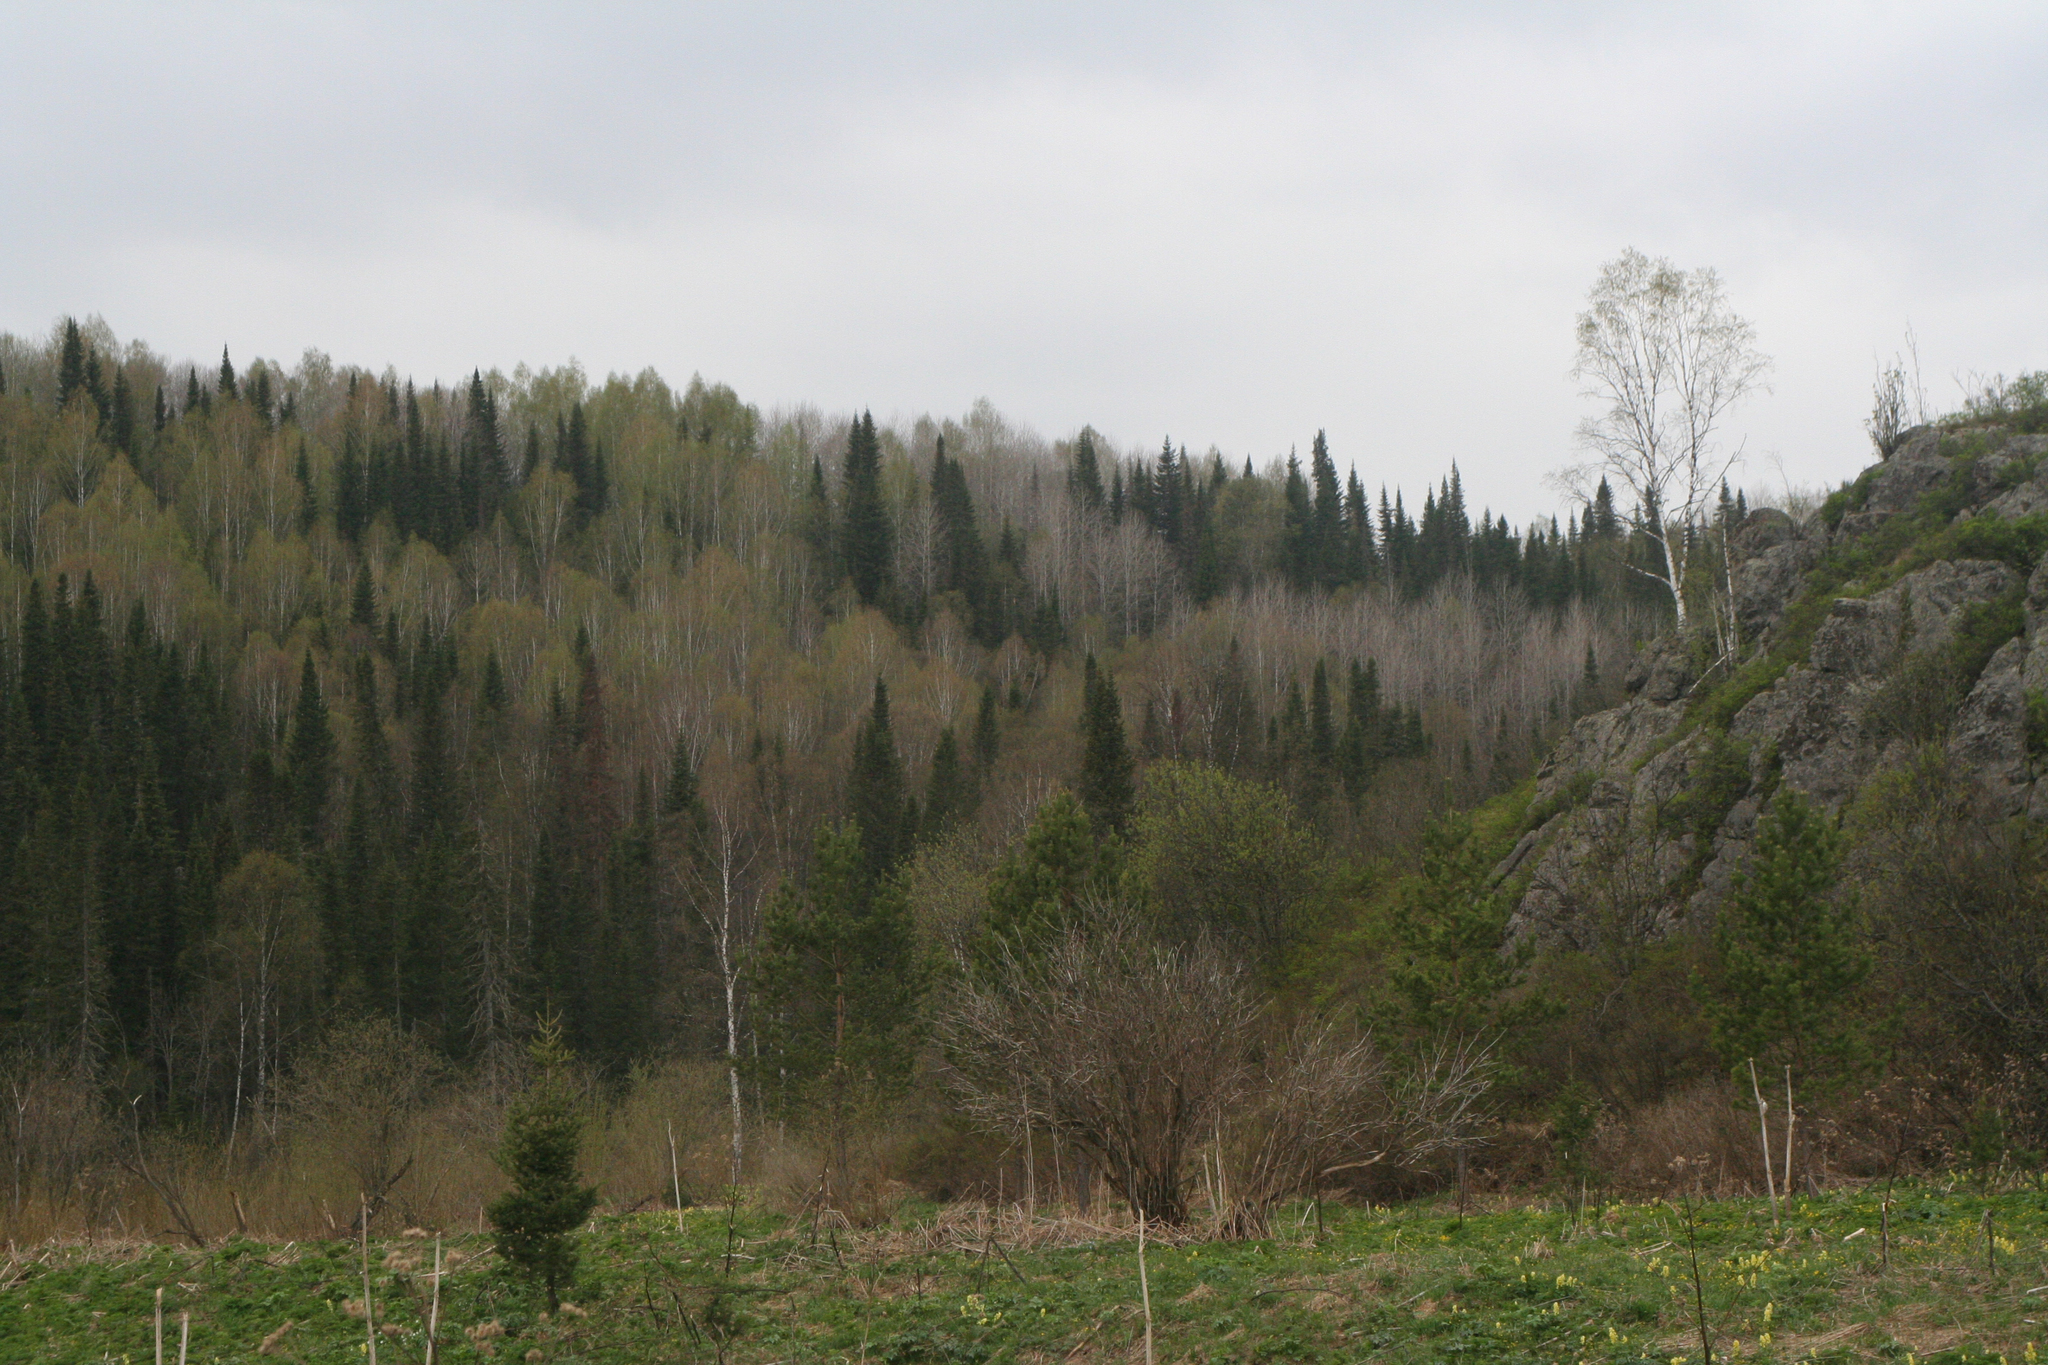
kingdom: Plantae
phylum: Tracheophyta
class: Pinopsida
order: Pinales
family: Pinaceae
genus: Abies
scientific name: Abies sibirica
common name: Siberian fir
